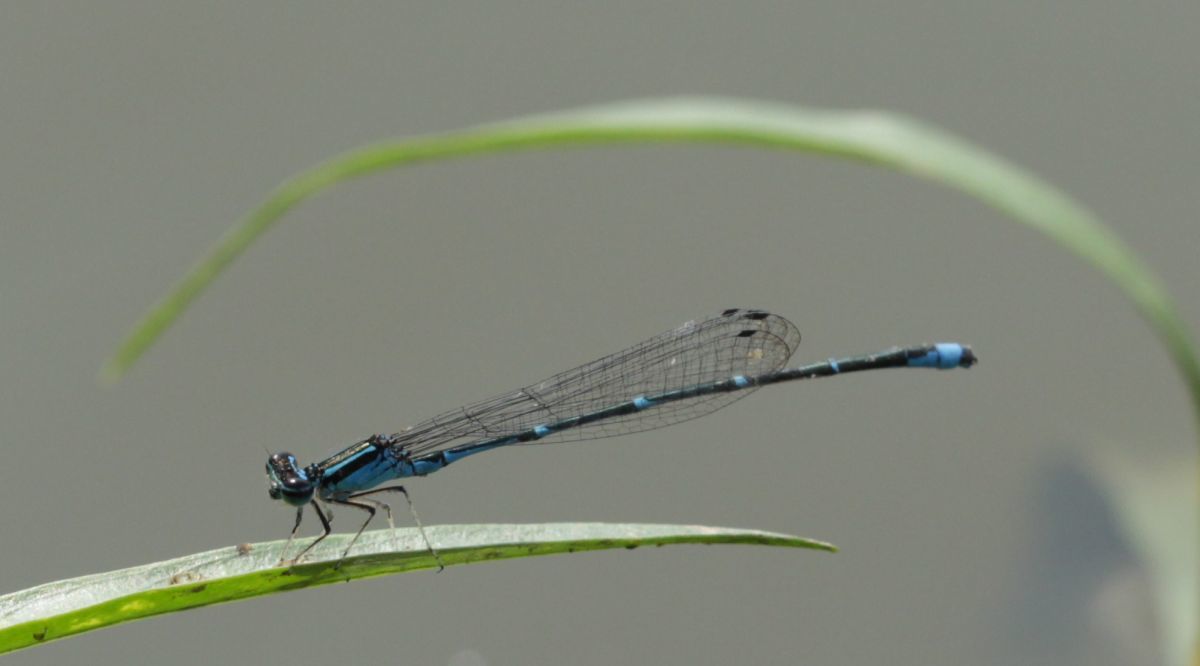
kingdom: Animalia
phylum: Arthropoda
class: Insecta
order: Odonata
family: Coenagrionidae
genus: Enallagma
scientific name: Enallagma exsulans
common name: Stream bluet
